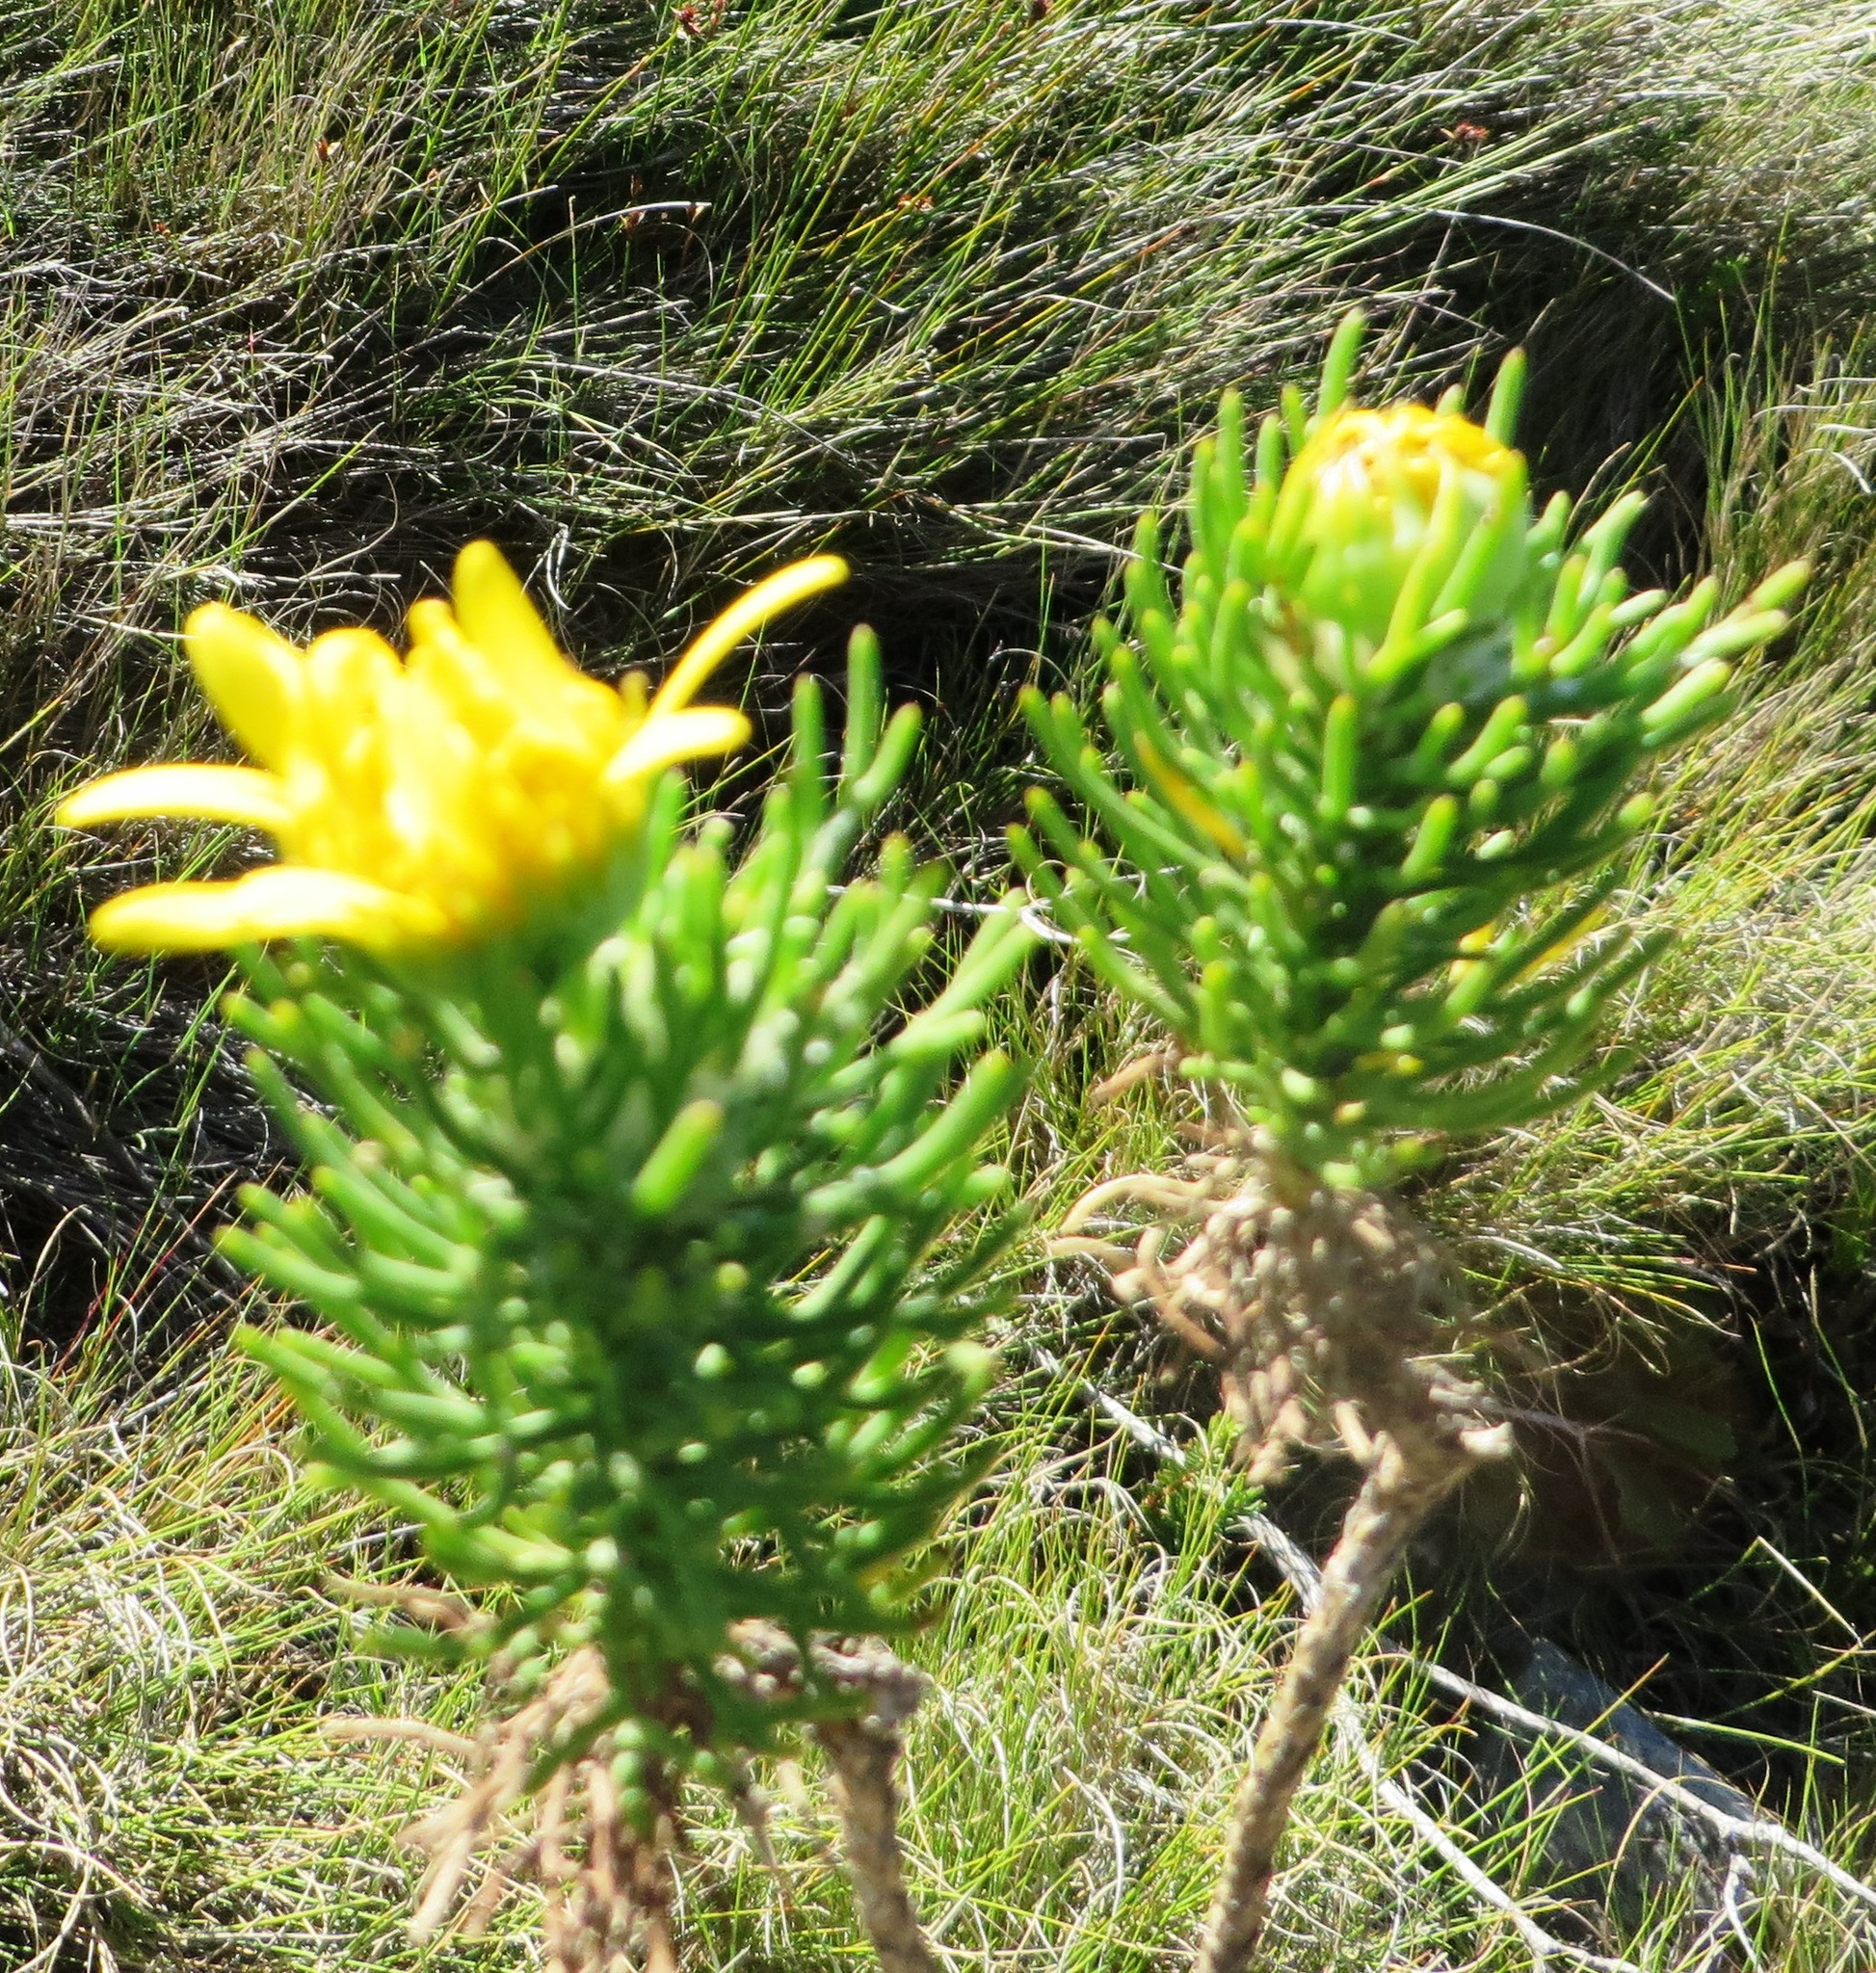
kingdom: Plantae
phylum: Tracheophyta
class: Magnoliopsida
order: Asterales
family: Asteraceae
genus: Euryops
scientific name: Euryops abrotanifolius
